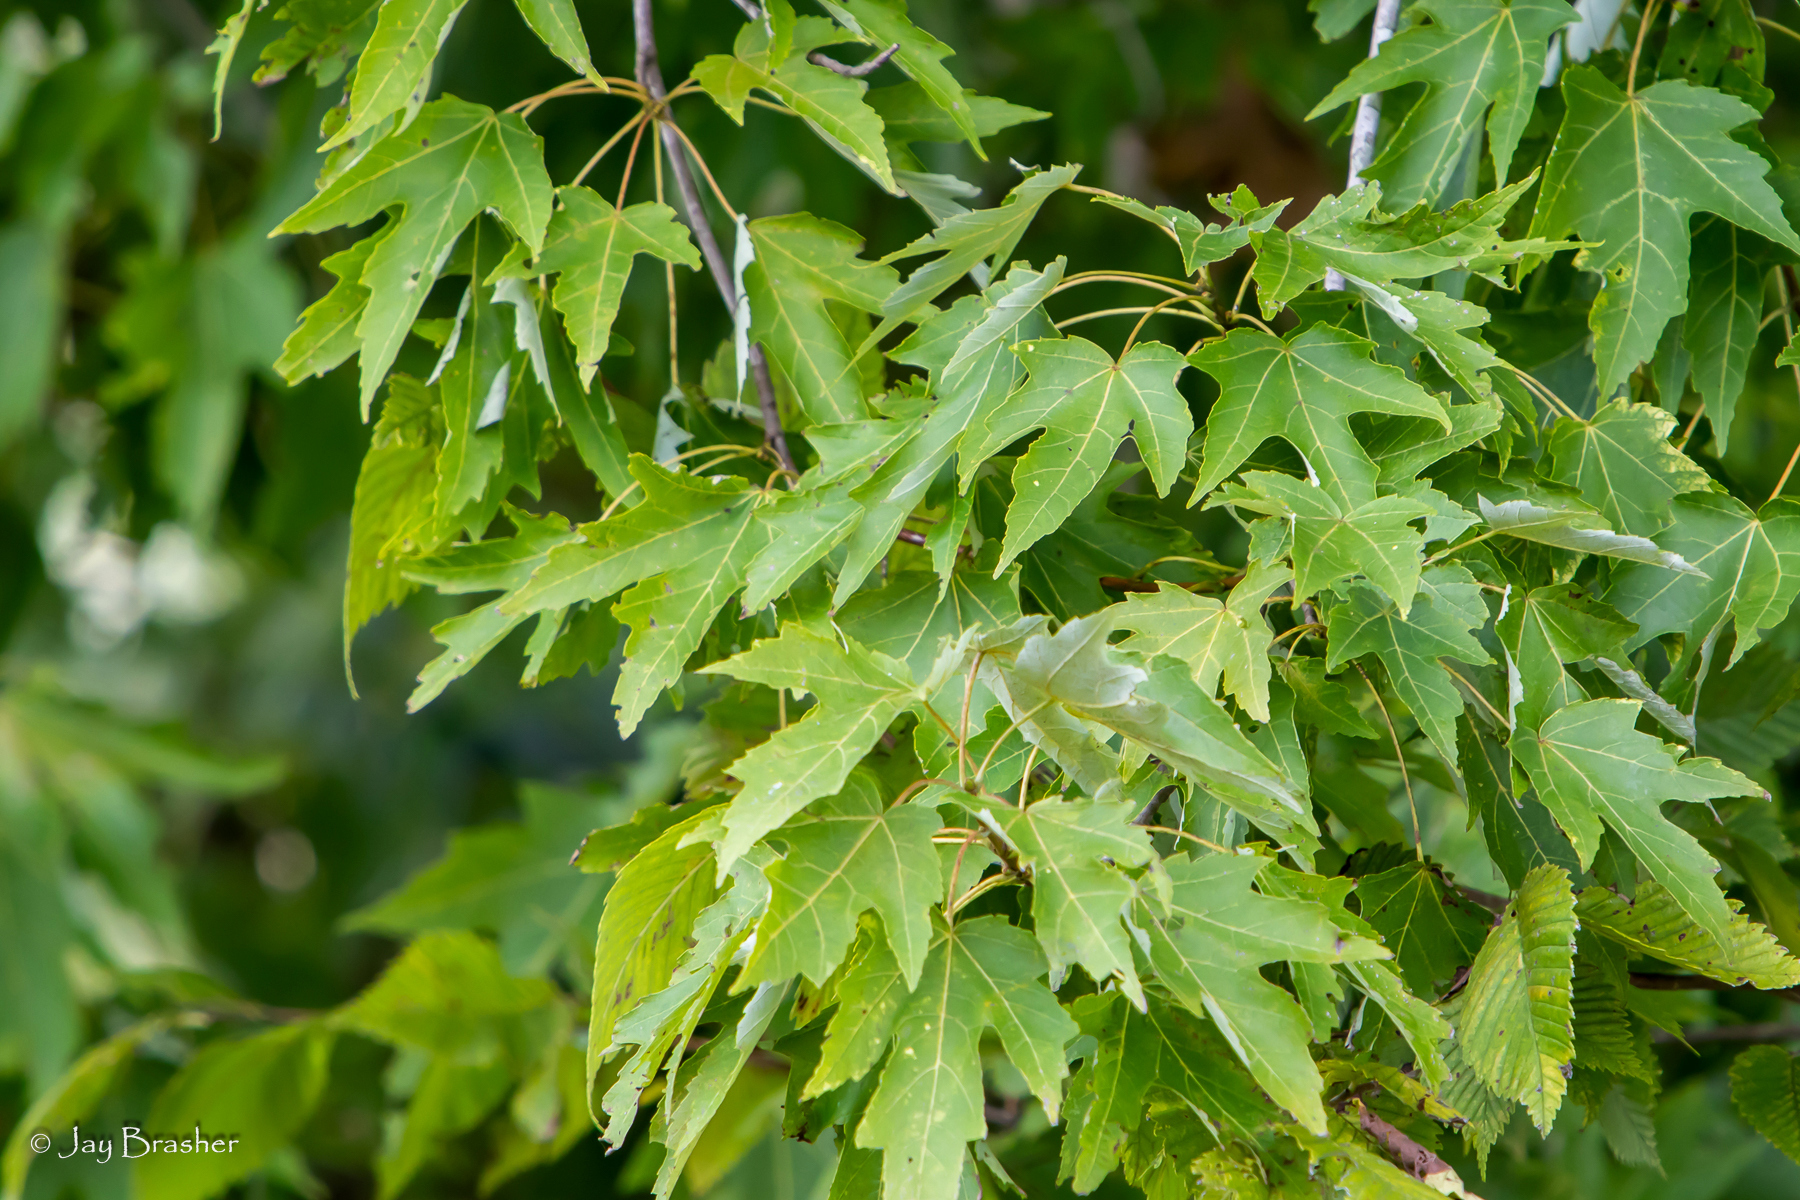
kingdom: Plantae
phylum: Tracheophyta
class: Magnoliopsida
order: Sapindales
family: Sapindaceae
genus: Acer
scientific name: Acer saccharinum
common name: Silver maple
